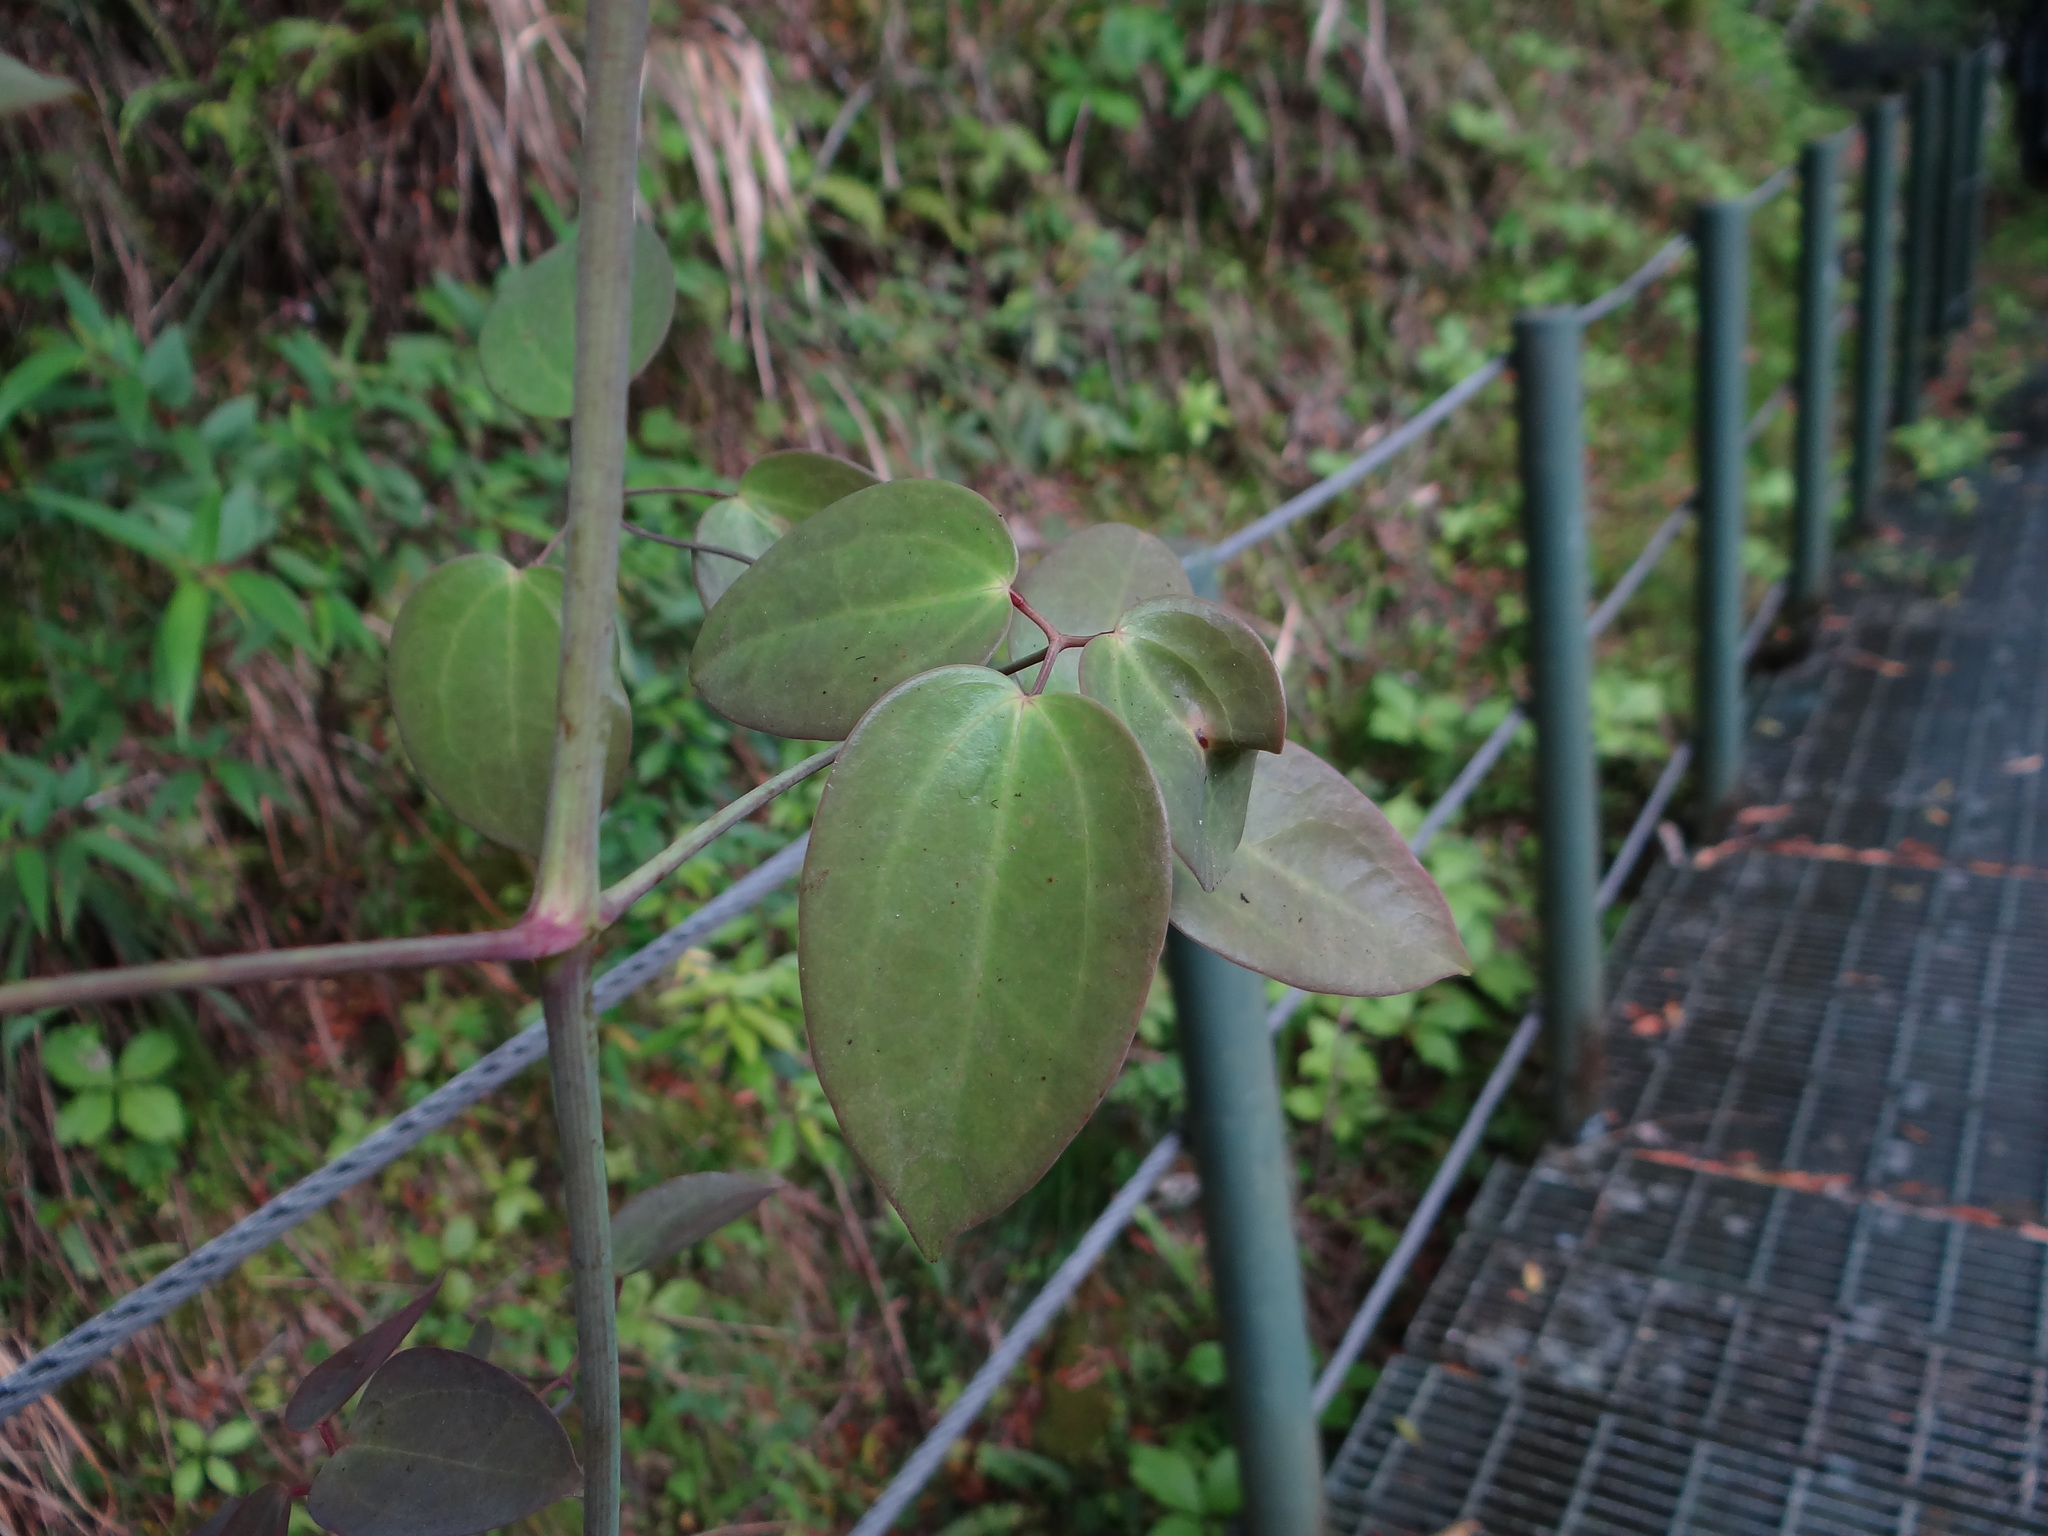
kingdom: Plantae
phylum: Tracheophyta
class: Magnoliopsida
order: Ranunculales
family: Ranunculaceae
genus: Clematis
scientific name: Clematis uncinata
